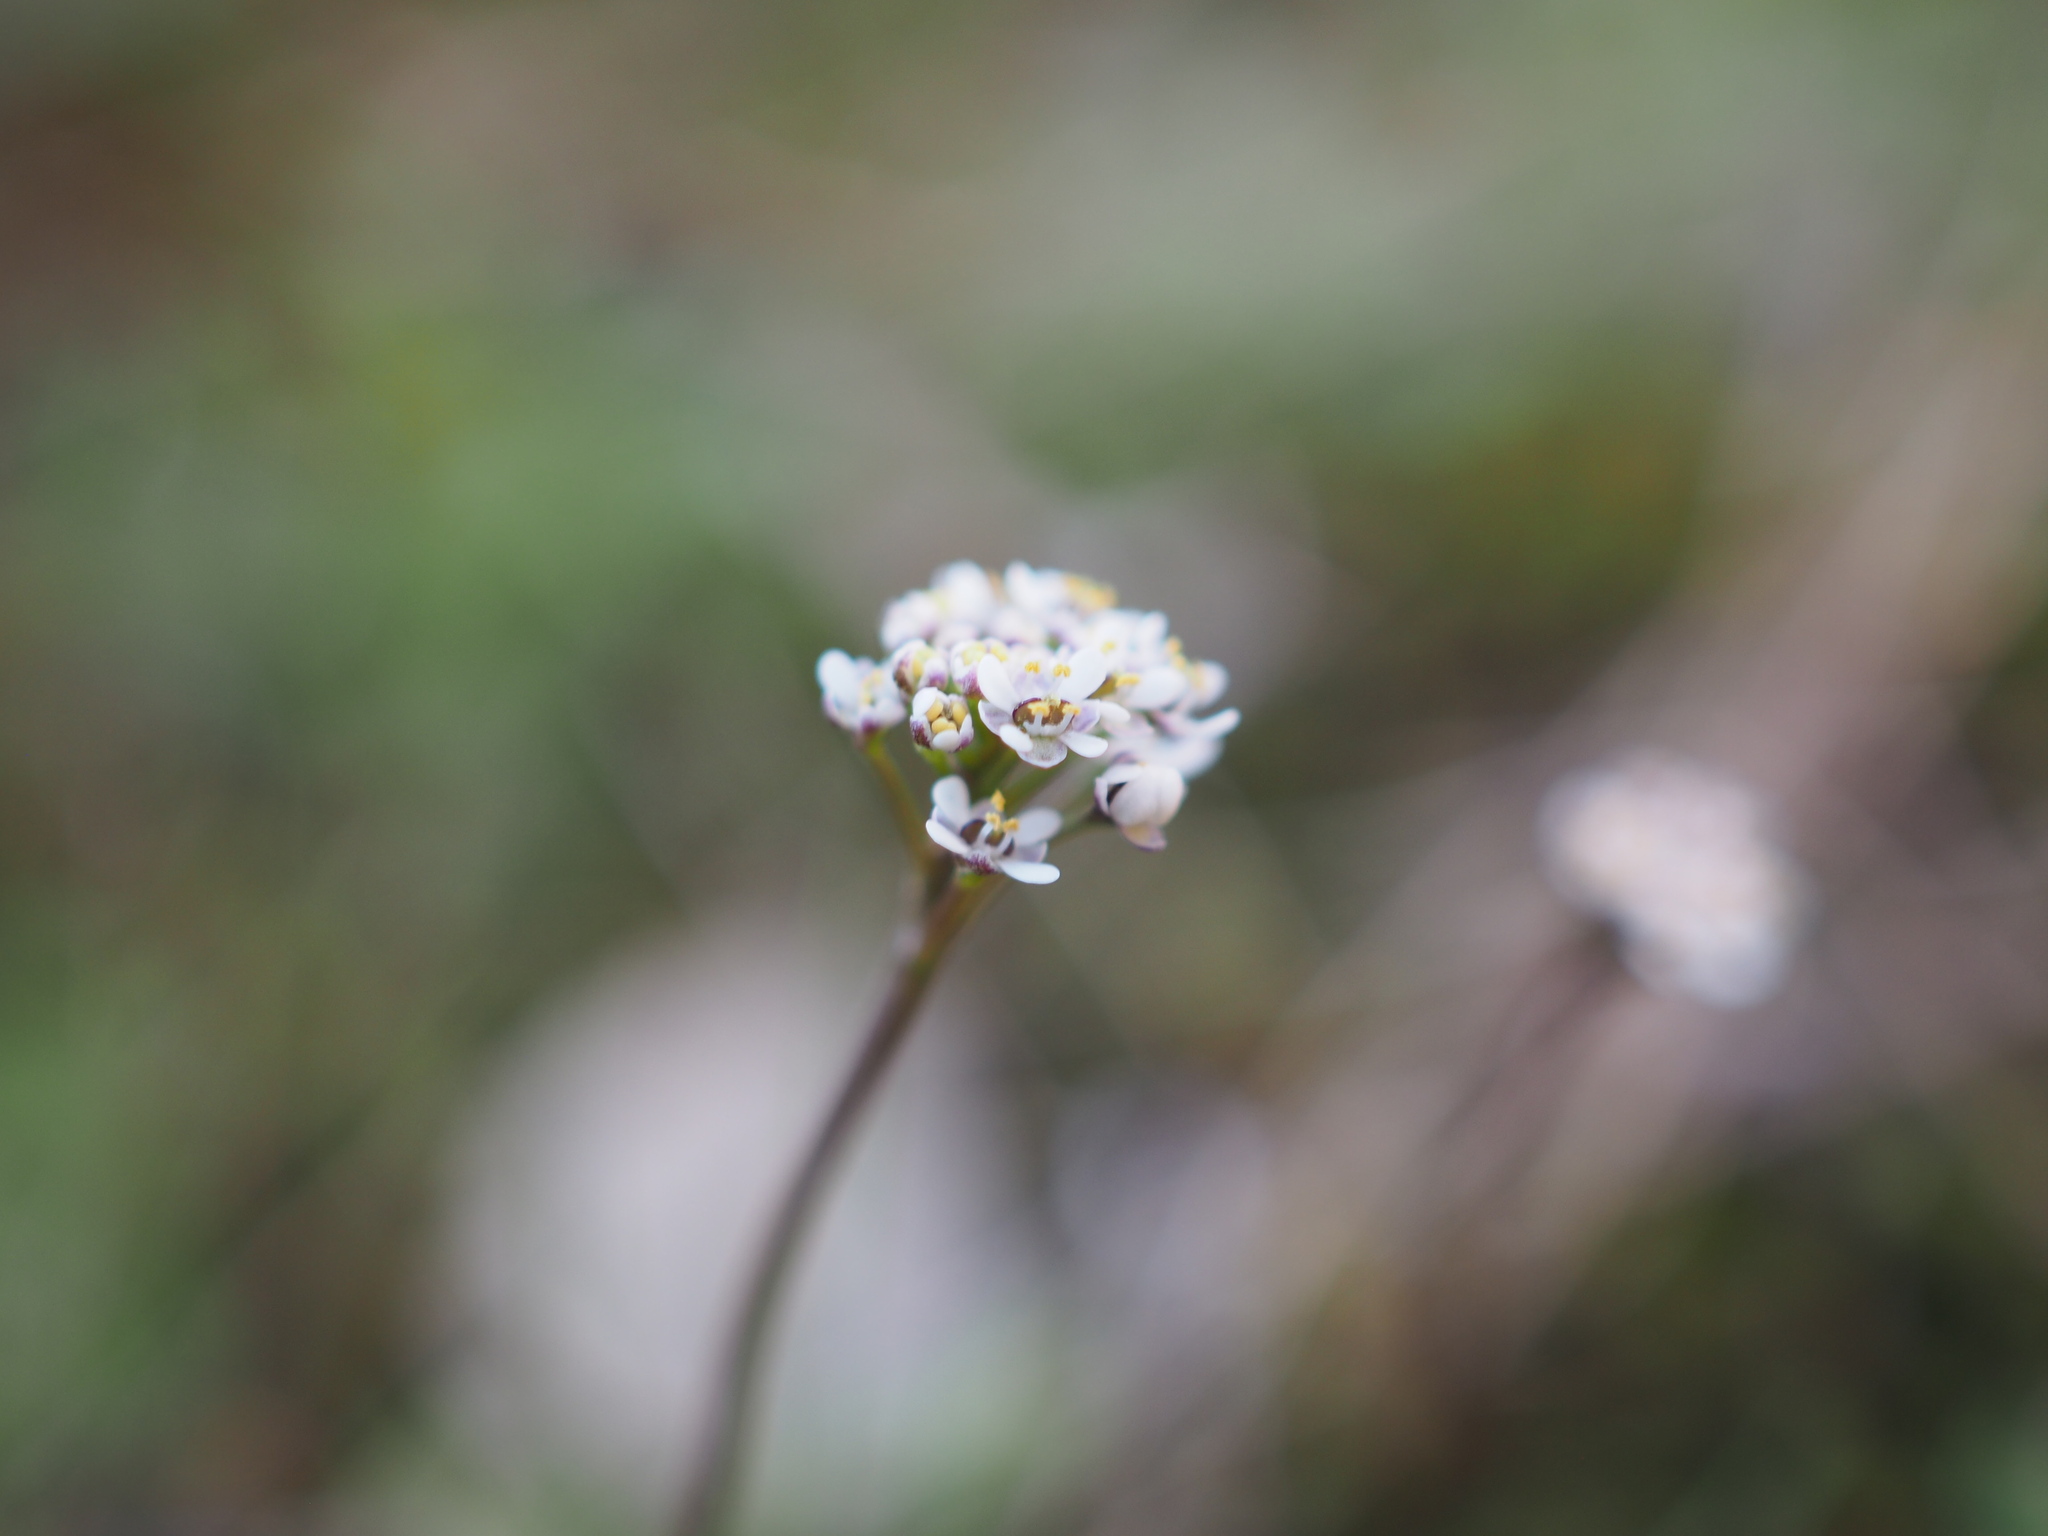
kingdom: Plantae
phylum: Tracheophyta
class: Magnoliopsida
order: Brassicales
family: Brassicaceae
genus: Teesdalia
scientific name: Teesdalia coronopifolia
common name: Lesser shepherdscress
